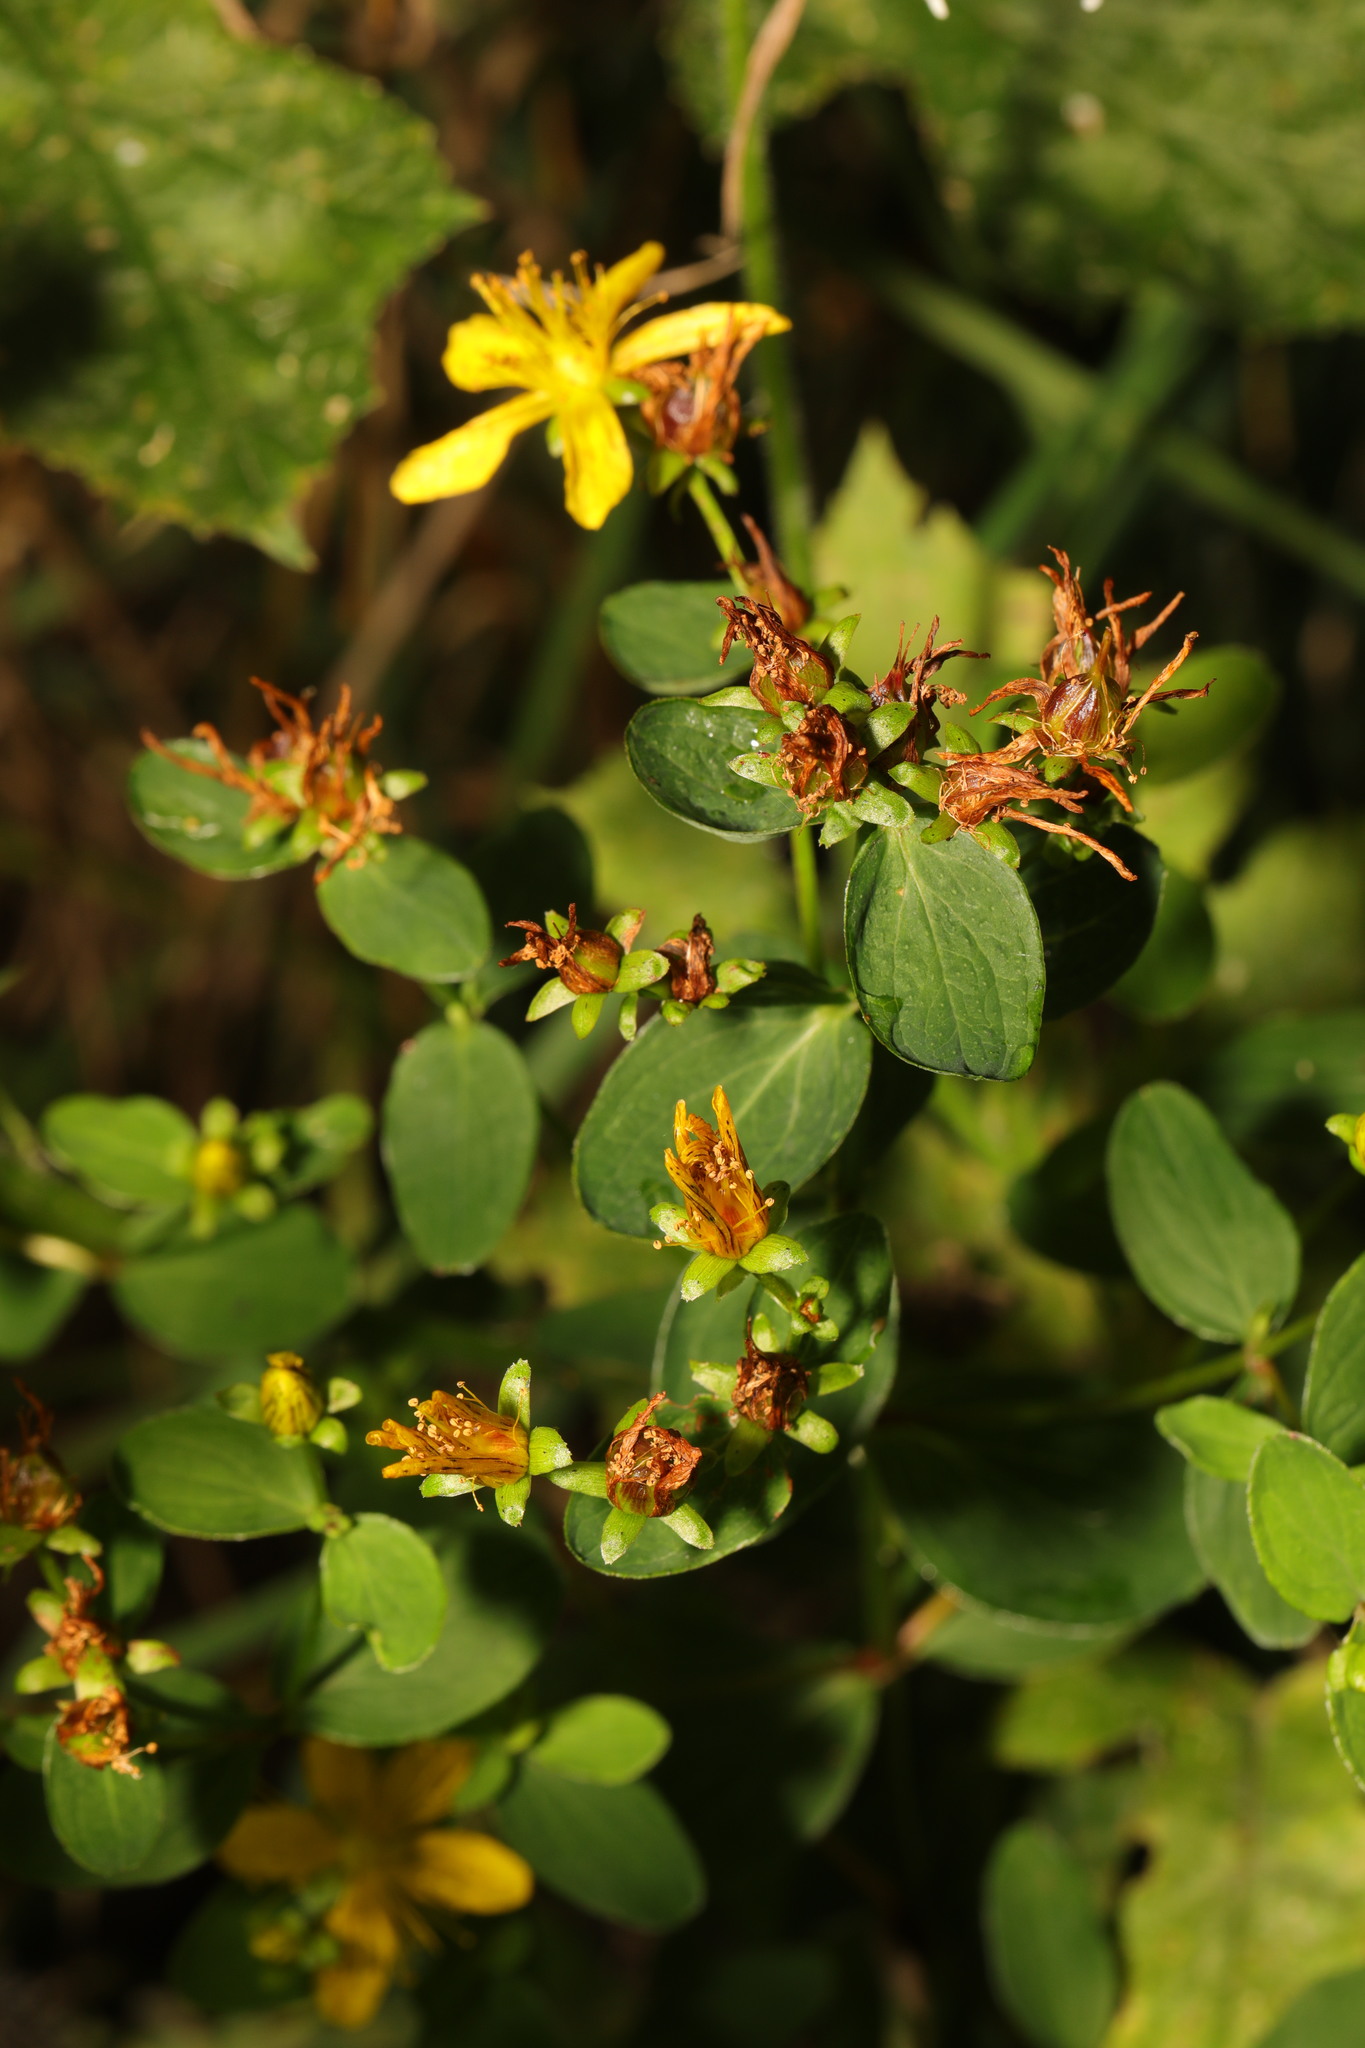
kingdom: Plantae
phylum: Tracheophyta
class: Magnoliopsida
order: Malpighiales
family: Hypericaceae
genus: Hypericum
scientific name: Hypericum perforatum
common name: Common st. johnswort
